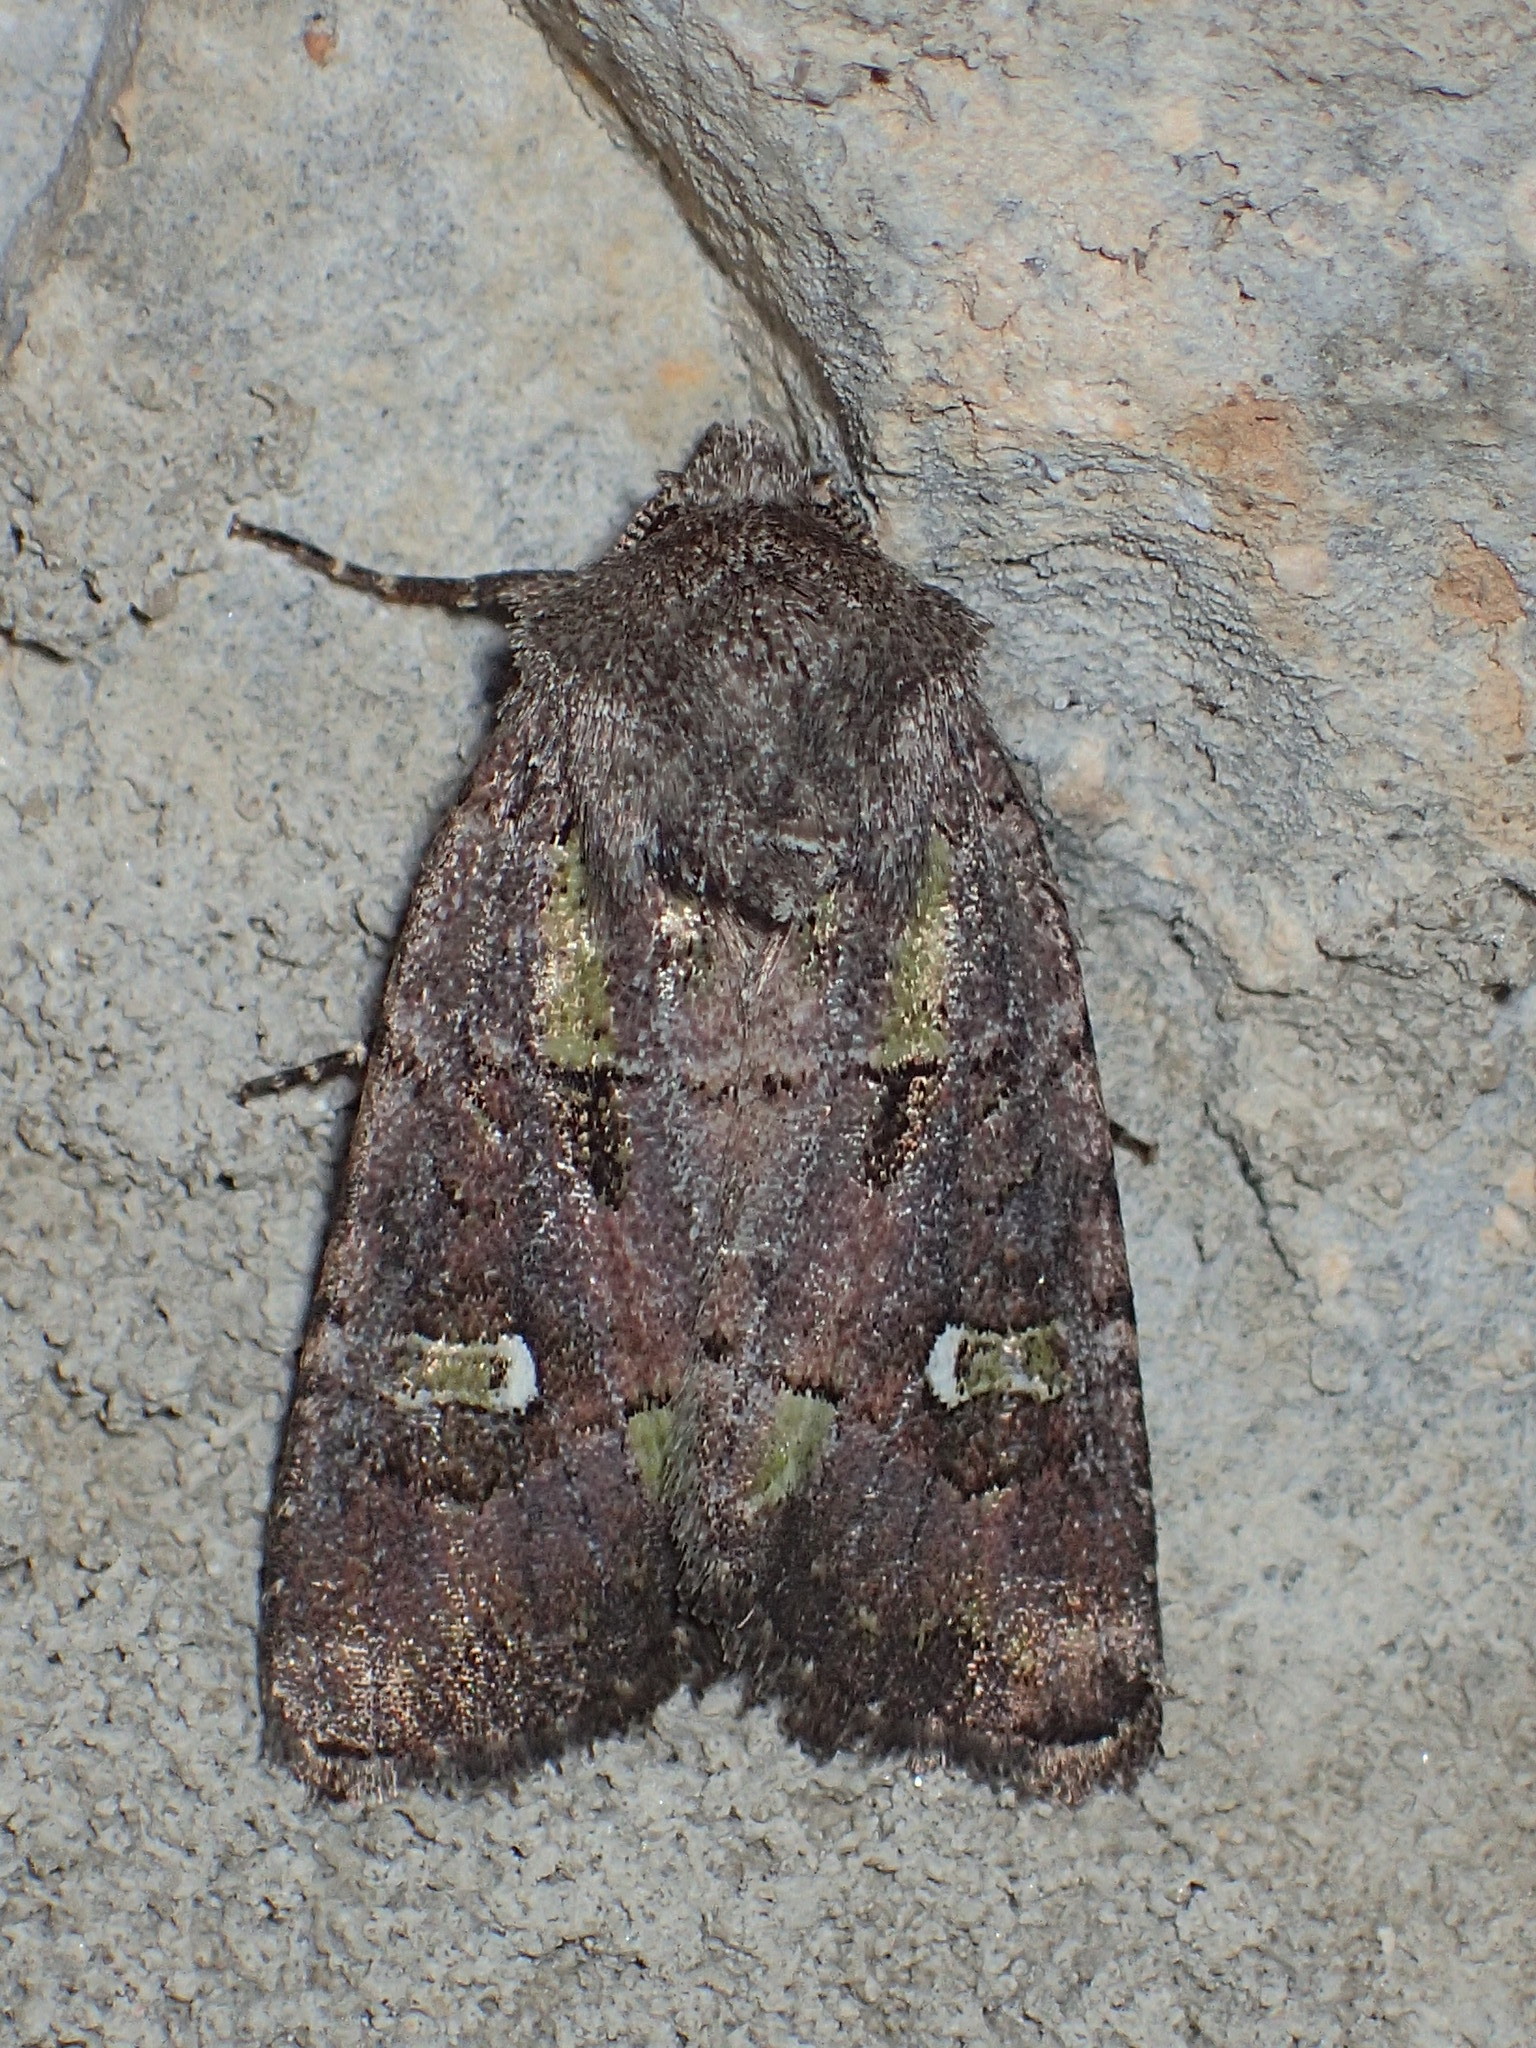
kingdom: Animalia
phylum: Arthropoda
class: Insecta
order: Lepidoptera
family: Noctuidae
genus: Lacinipolia
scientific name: Lacinipolia renigera
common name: Kidney-spotted minor
